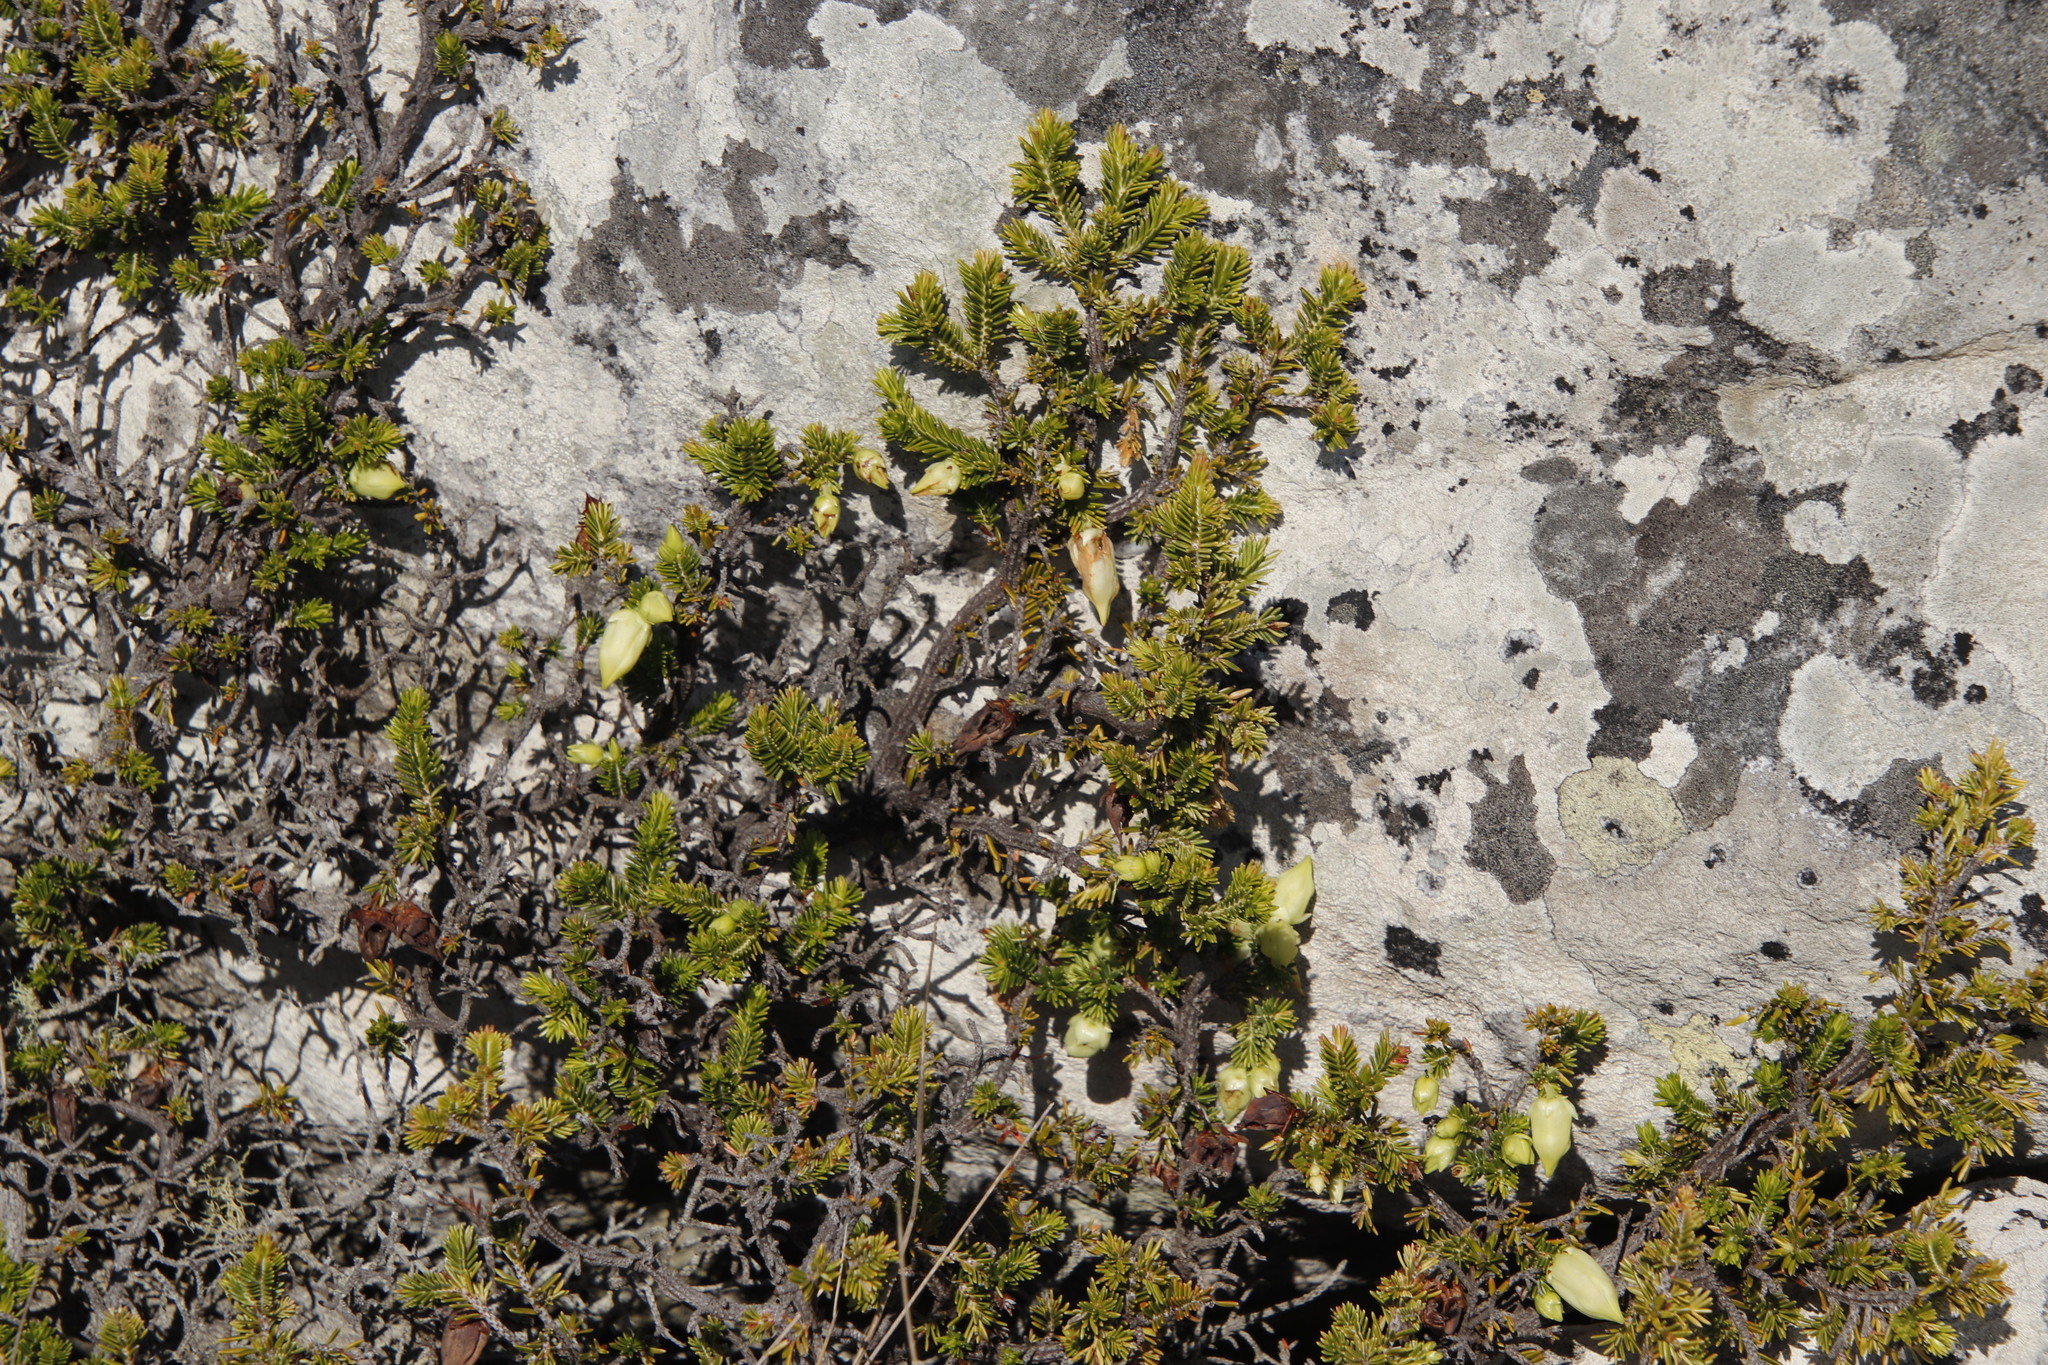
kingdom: Plantae
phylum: Tracheophyta
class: Magnoliopsida
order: Ericales
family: Ericaceae
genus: Erica
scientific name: Erica halicacaba
